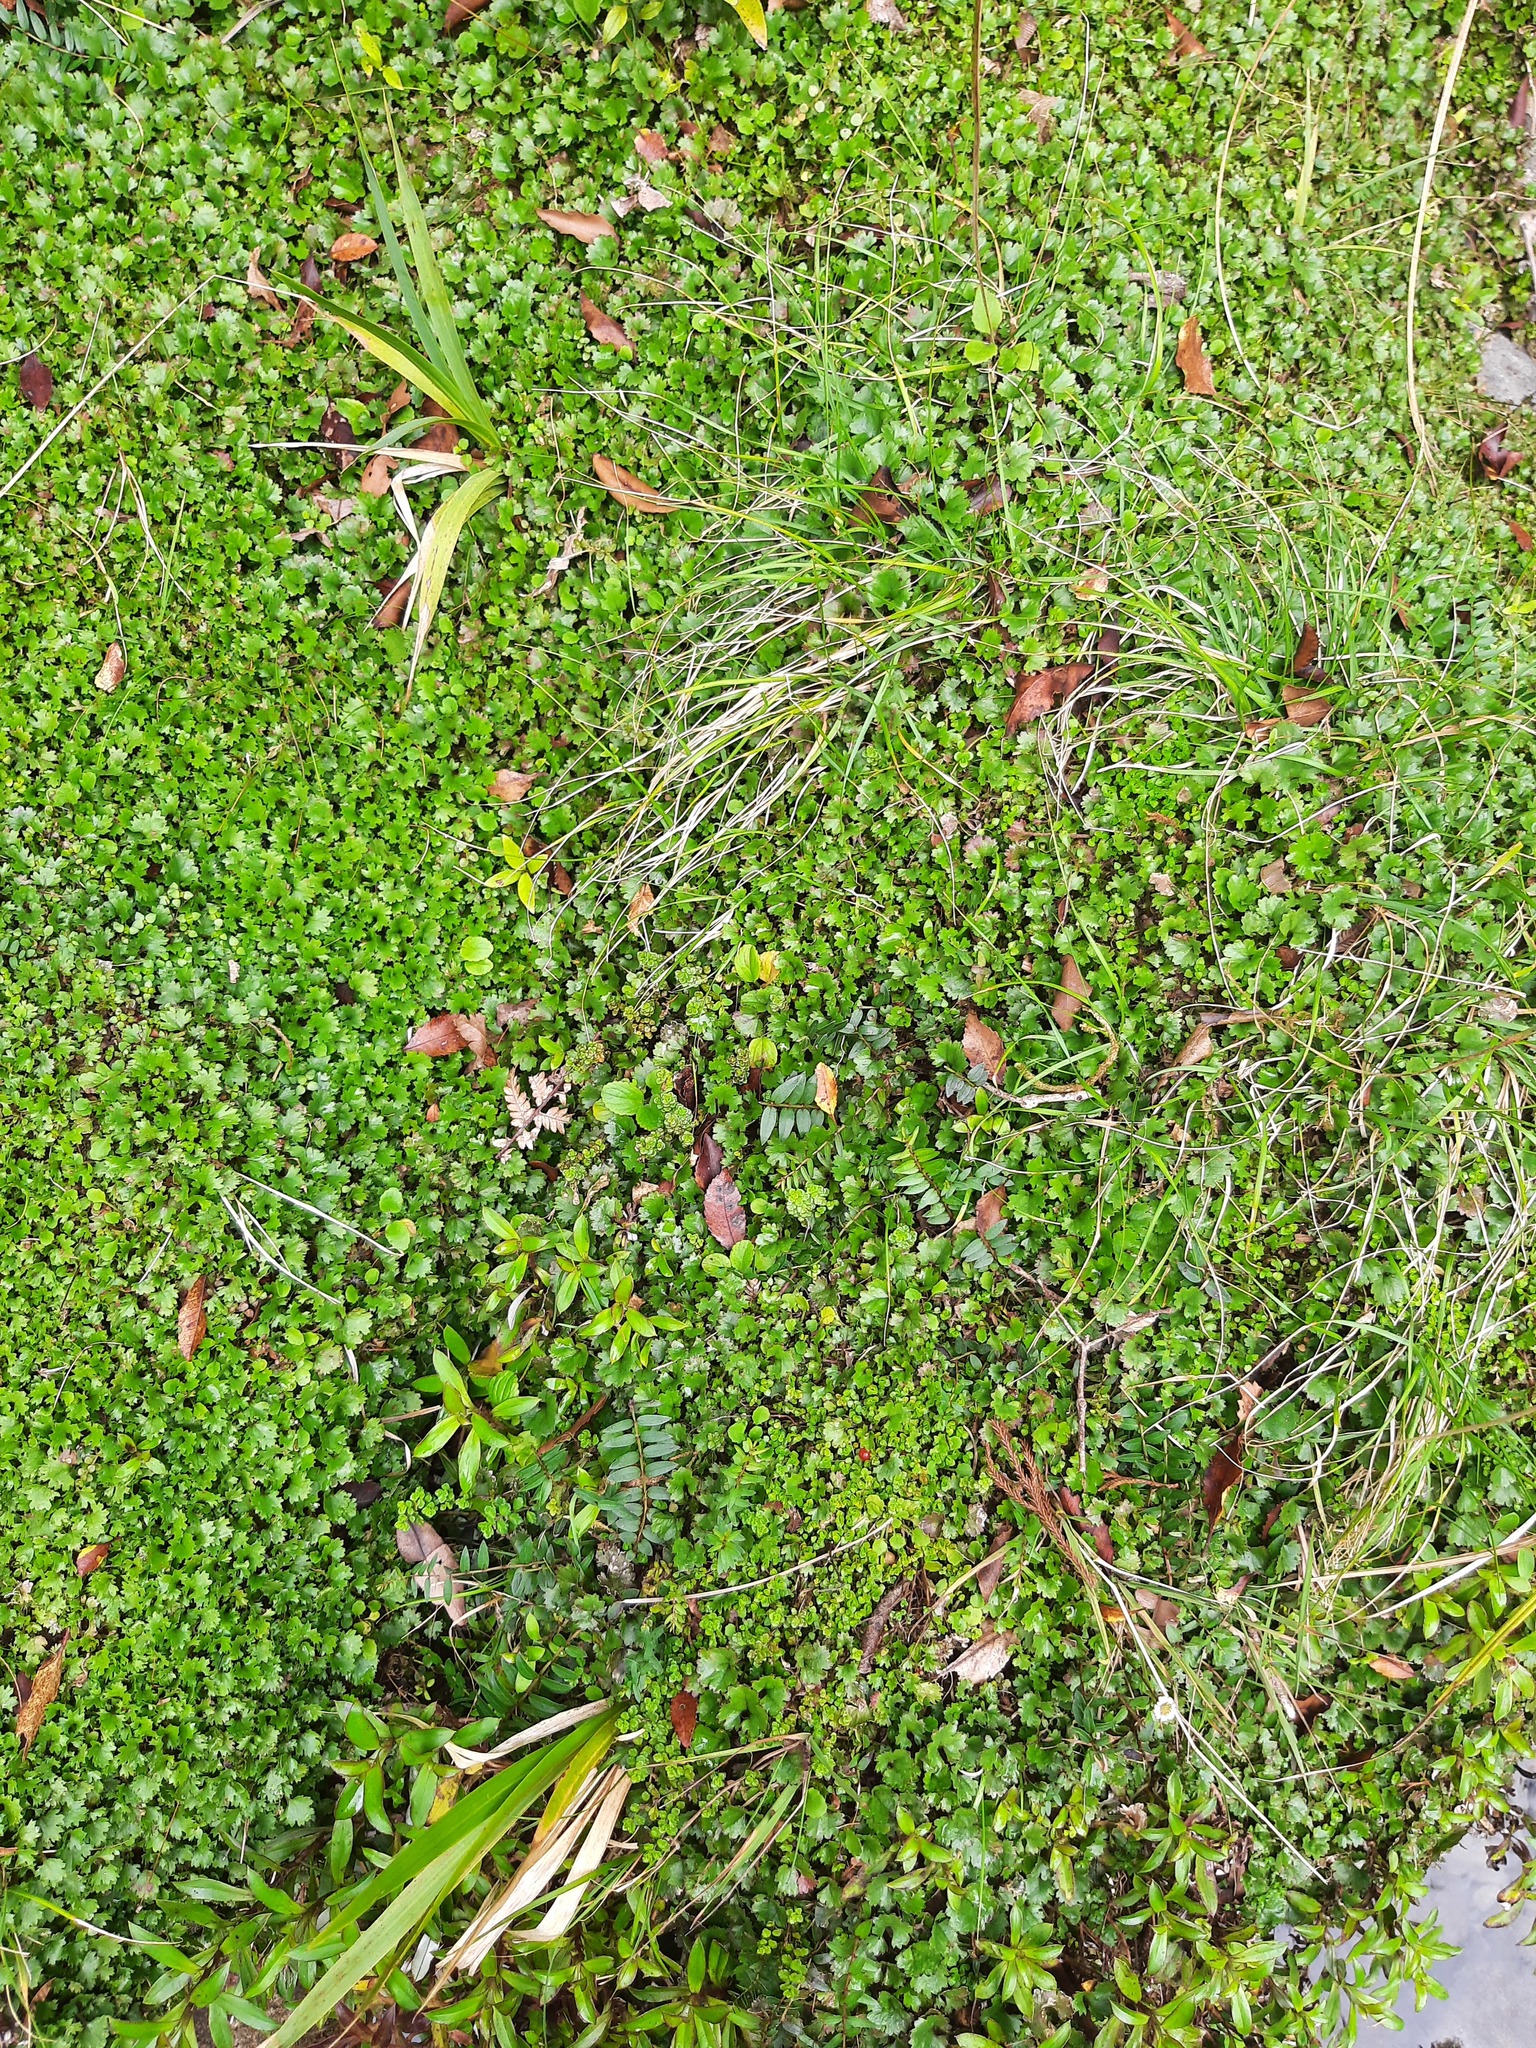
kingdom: Plantae
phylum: Tracheophyta
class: Magnoliopsida
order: Gunnerales
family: Gunneraceae
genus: Gunnera
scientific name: Gunnera monoica
